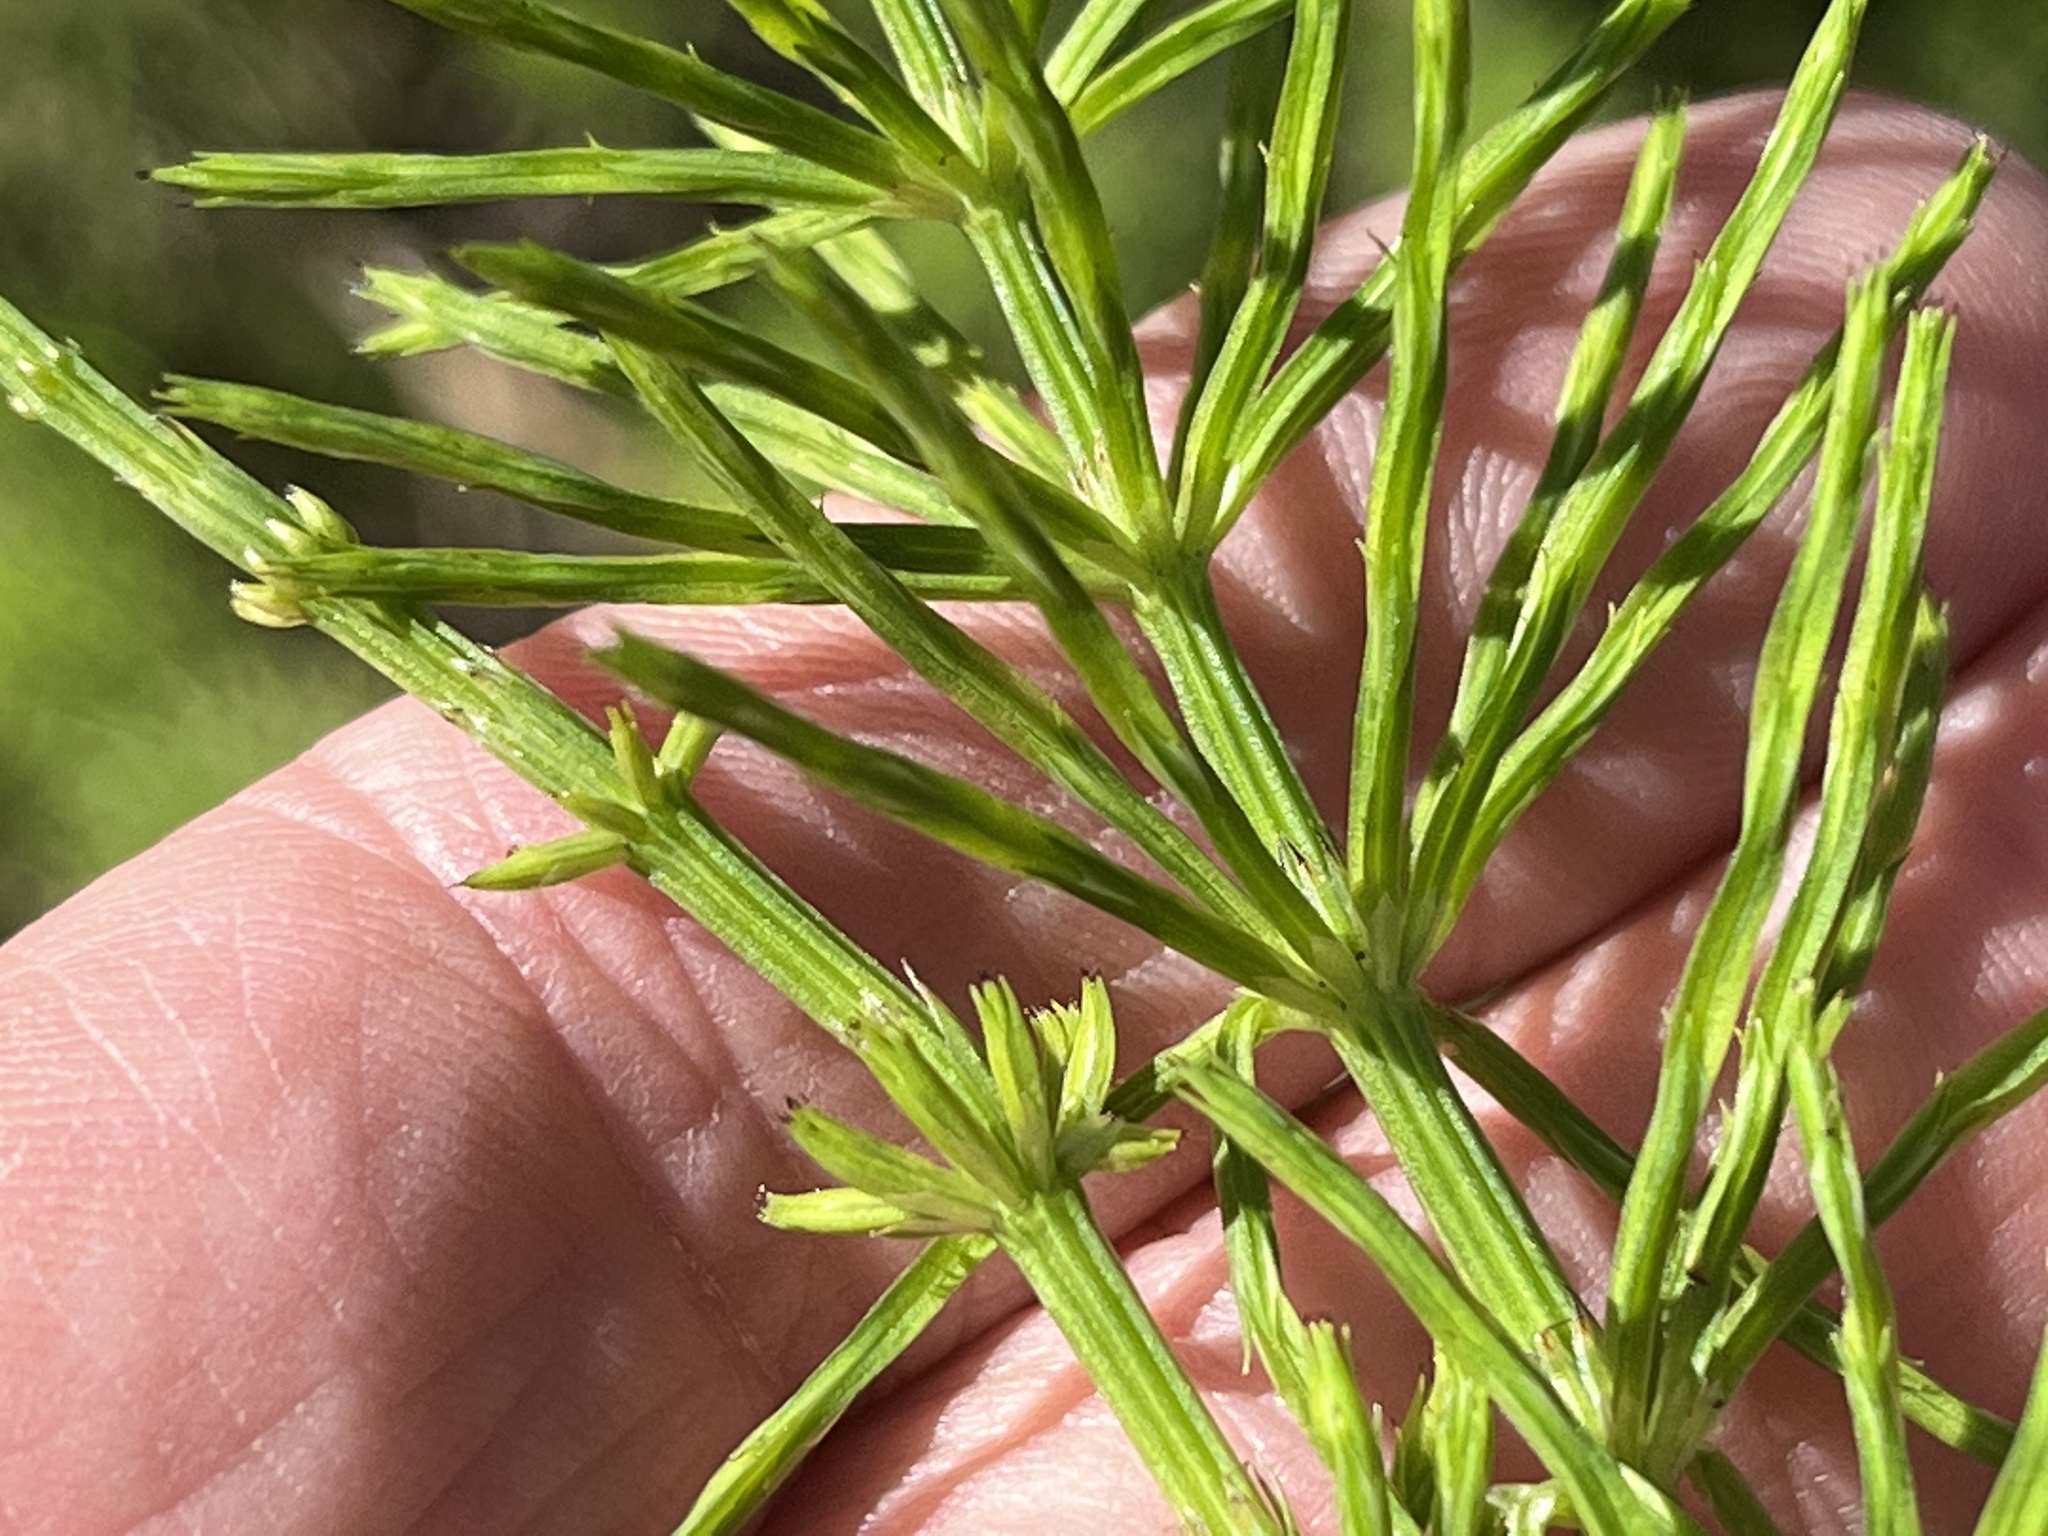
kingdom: Plantae
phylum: Tracheophyta
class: Polypodiopsida
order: Equisetales
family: Equisetaceae
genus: Equisetum
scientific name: Equisetum arvense
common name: Field horsetail
